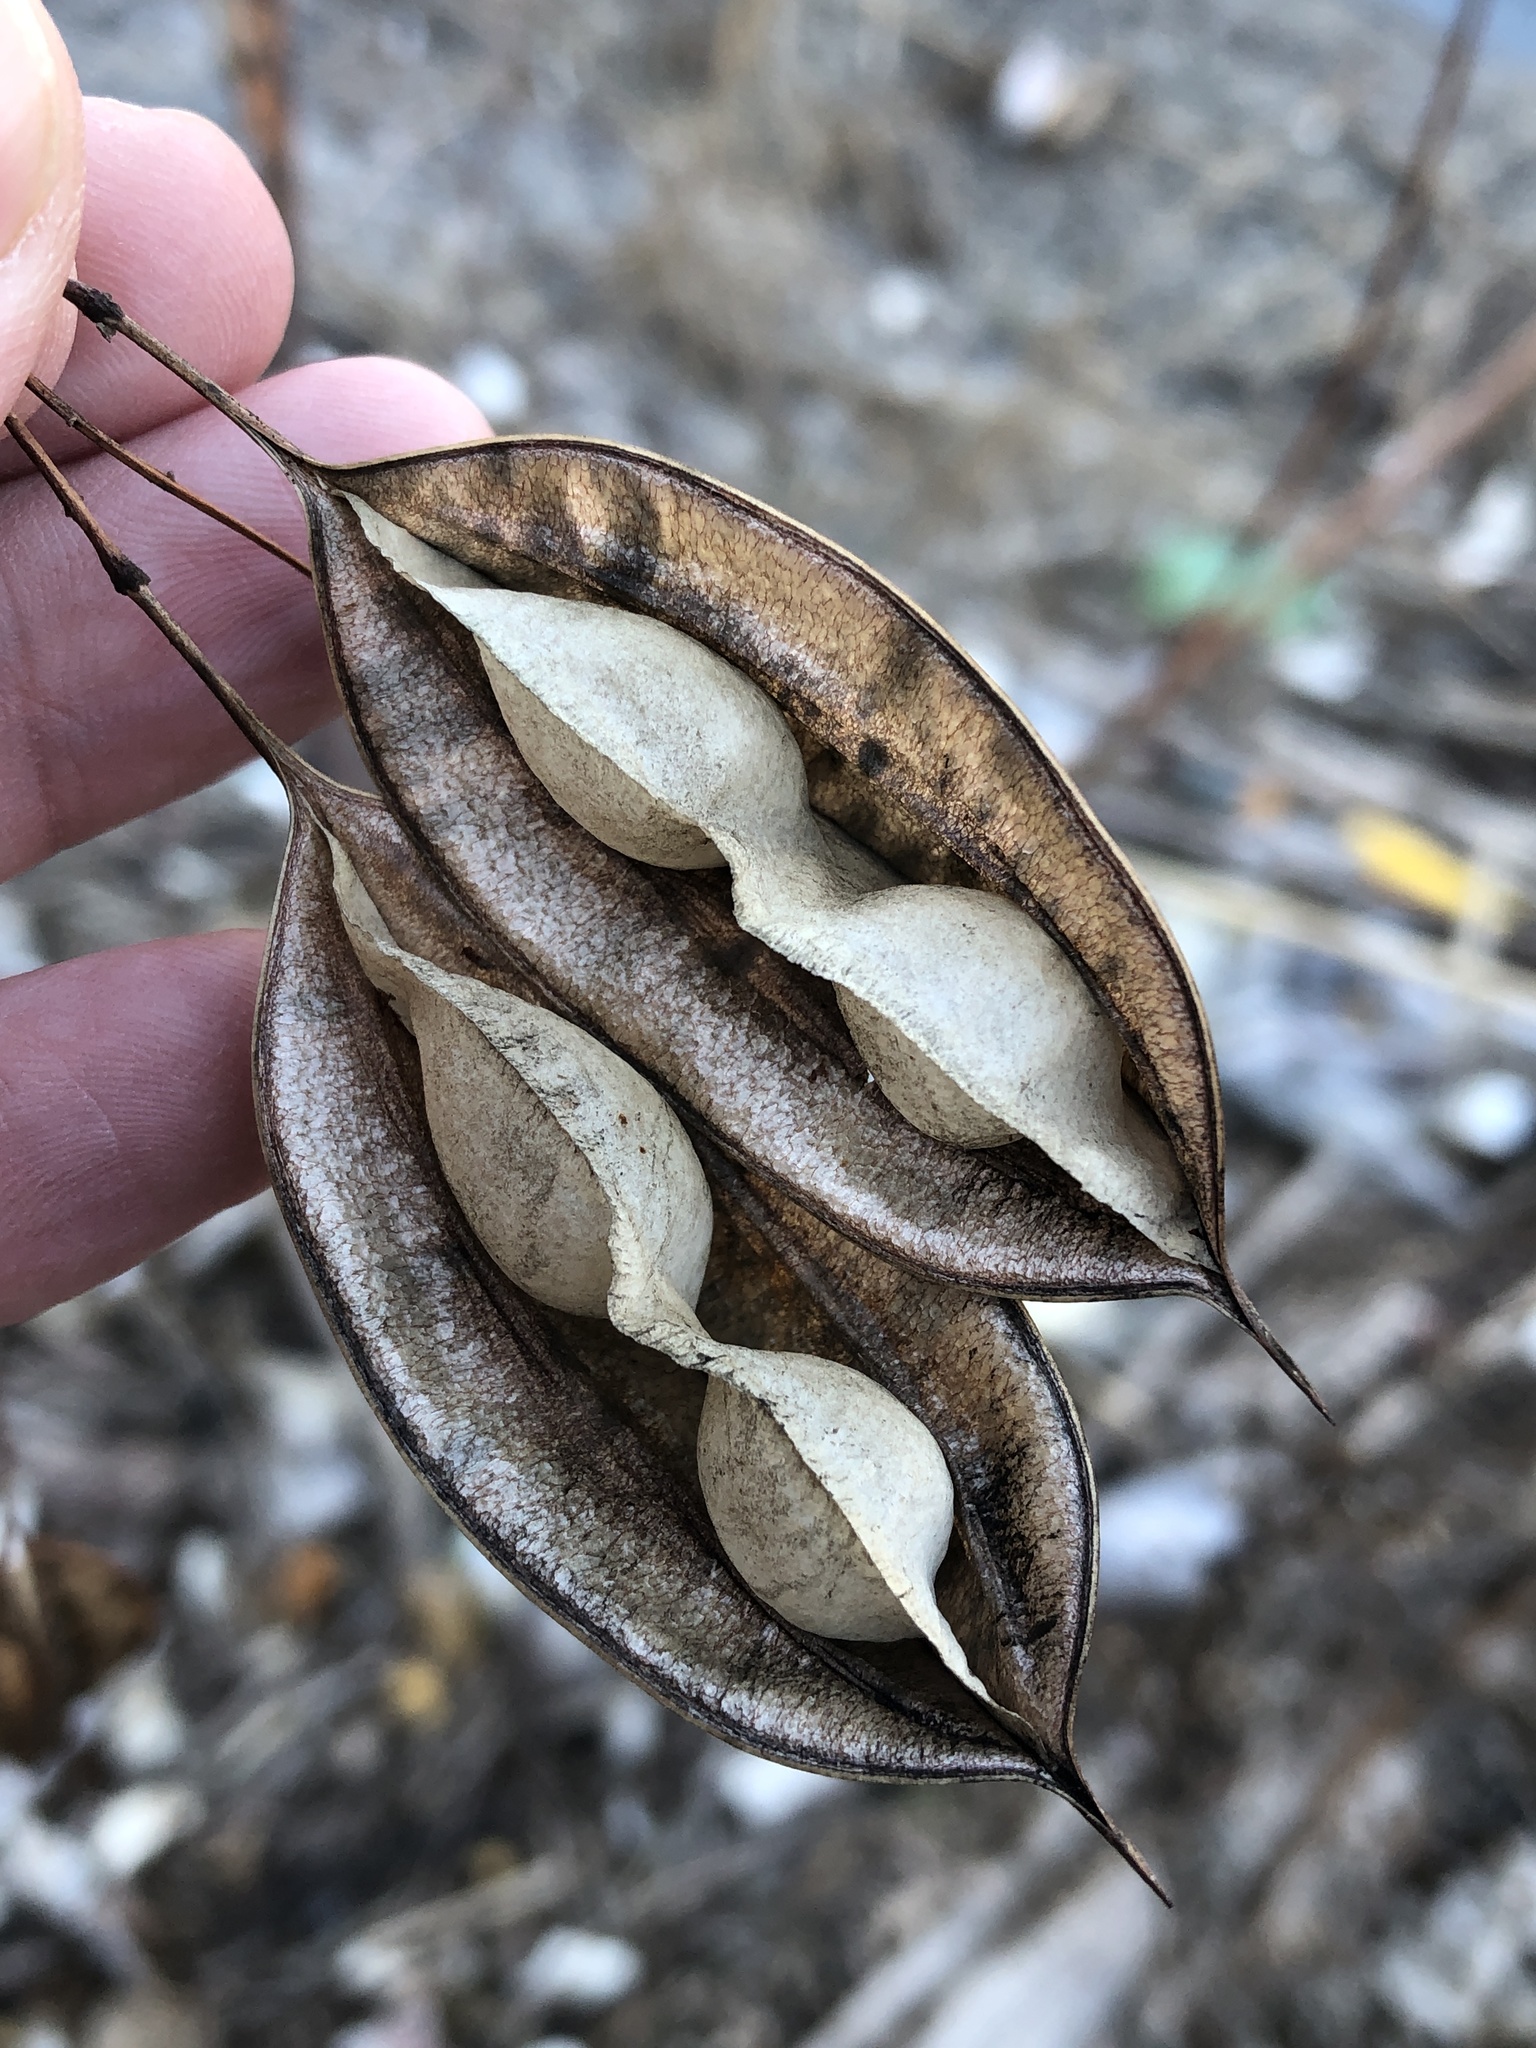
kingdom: Plantae
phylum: Tracheophyta
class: Magnoliopsida
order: Fabales
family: Fabaceae
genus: Sesbania
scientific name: Sesbania vesicaria
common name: Bagpod
